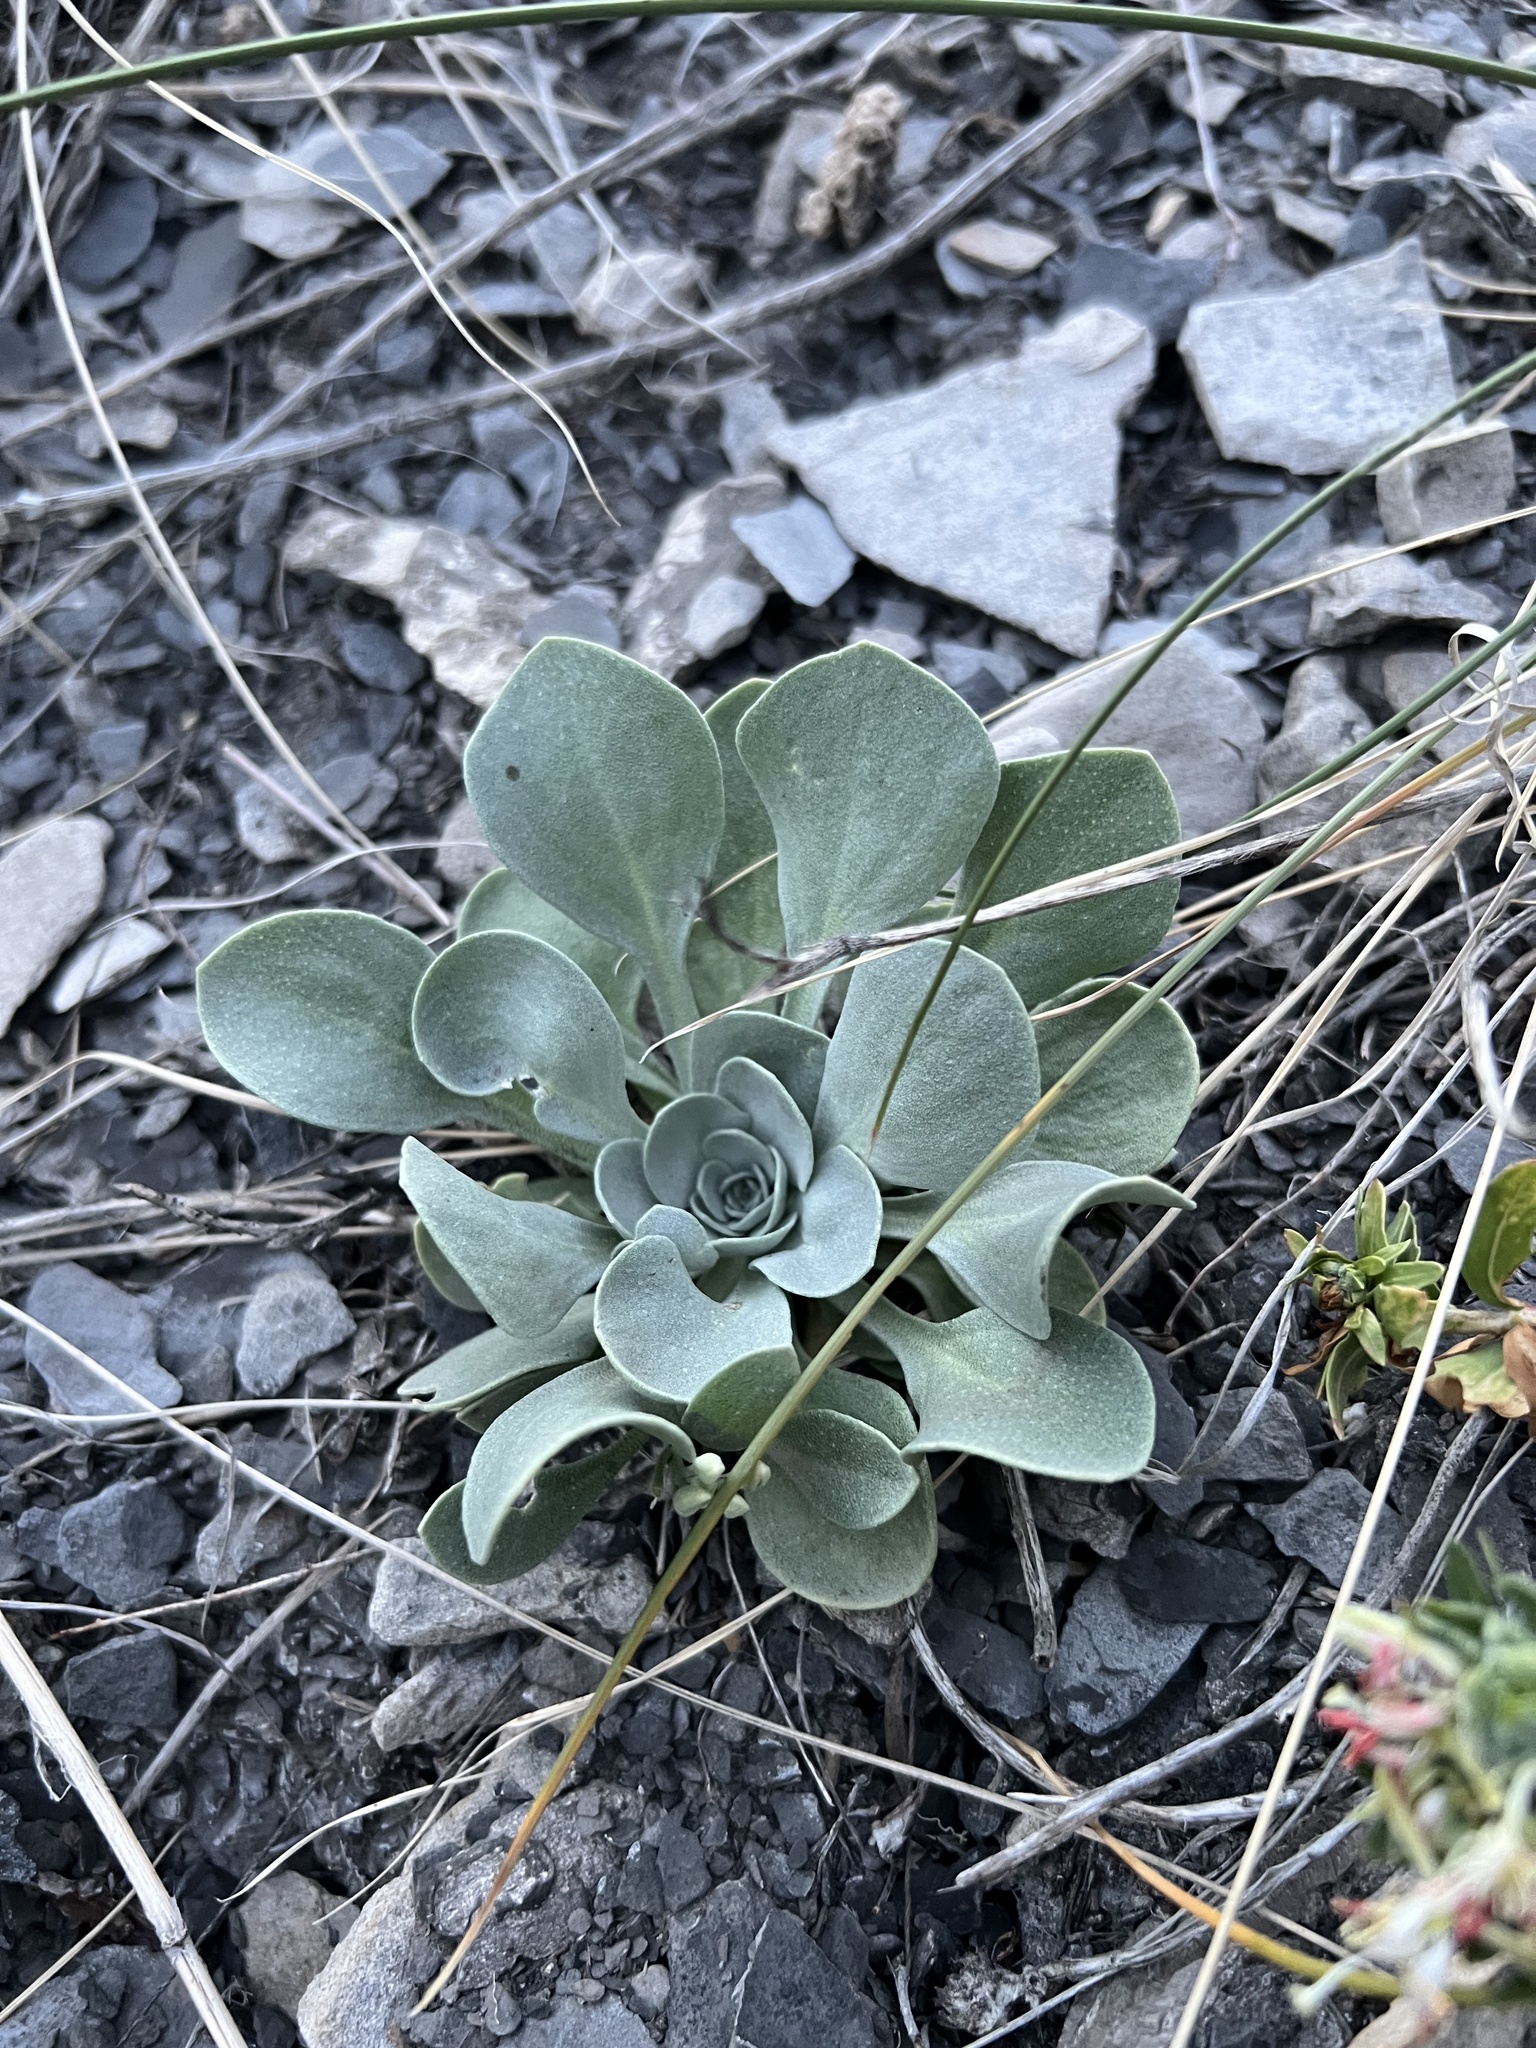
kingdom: Plantae
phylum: Tracheophyta
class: Magnoliopsida
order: Brassicales
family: Brassicaceae
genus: Physaria
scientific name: Physaria bellii
